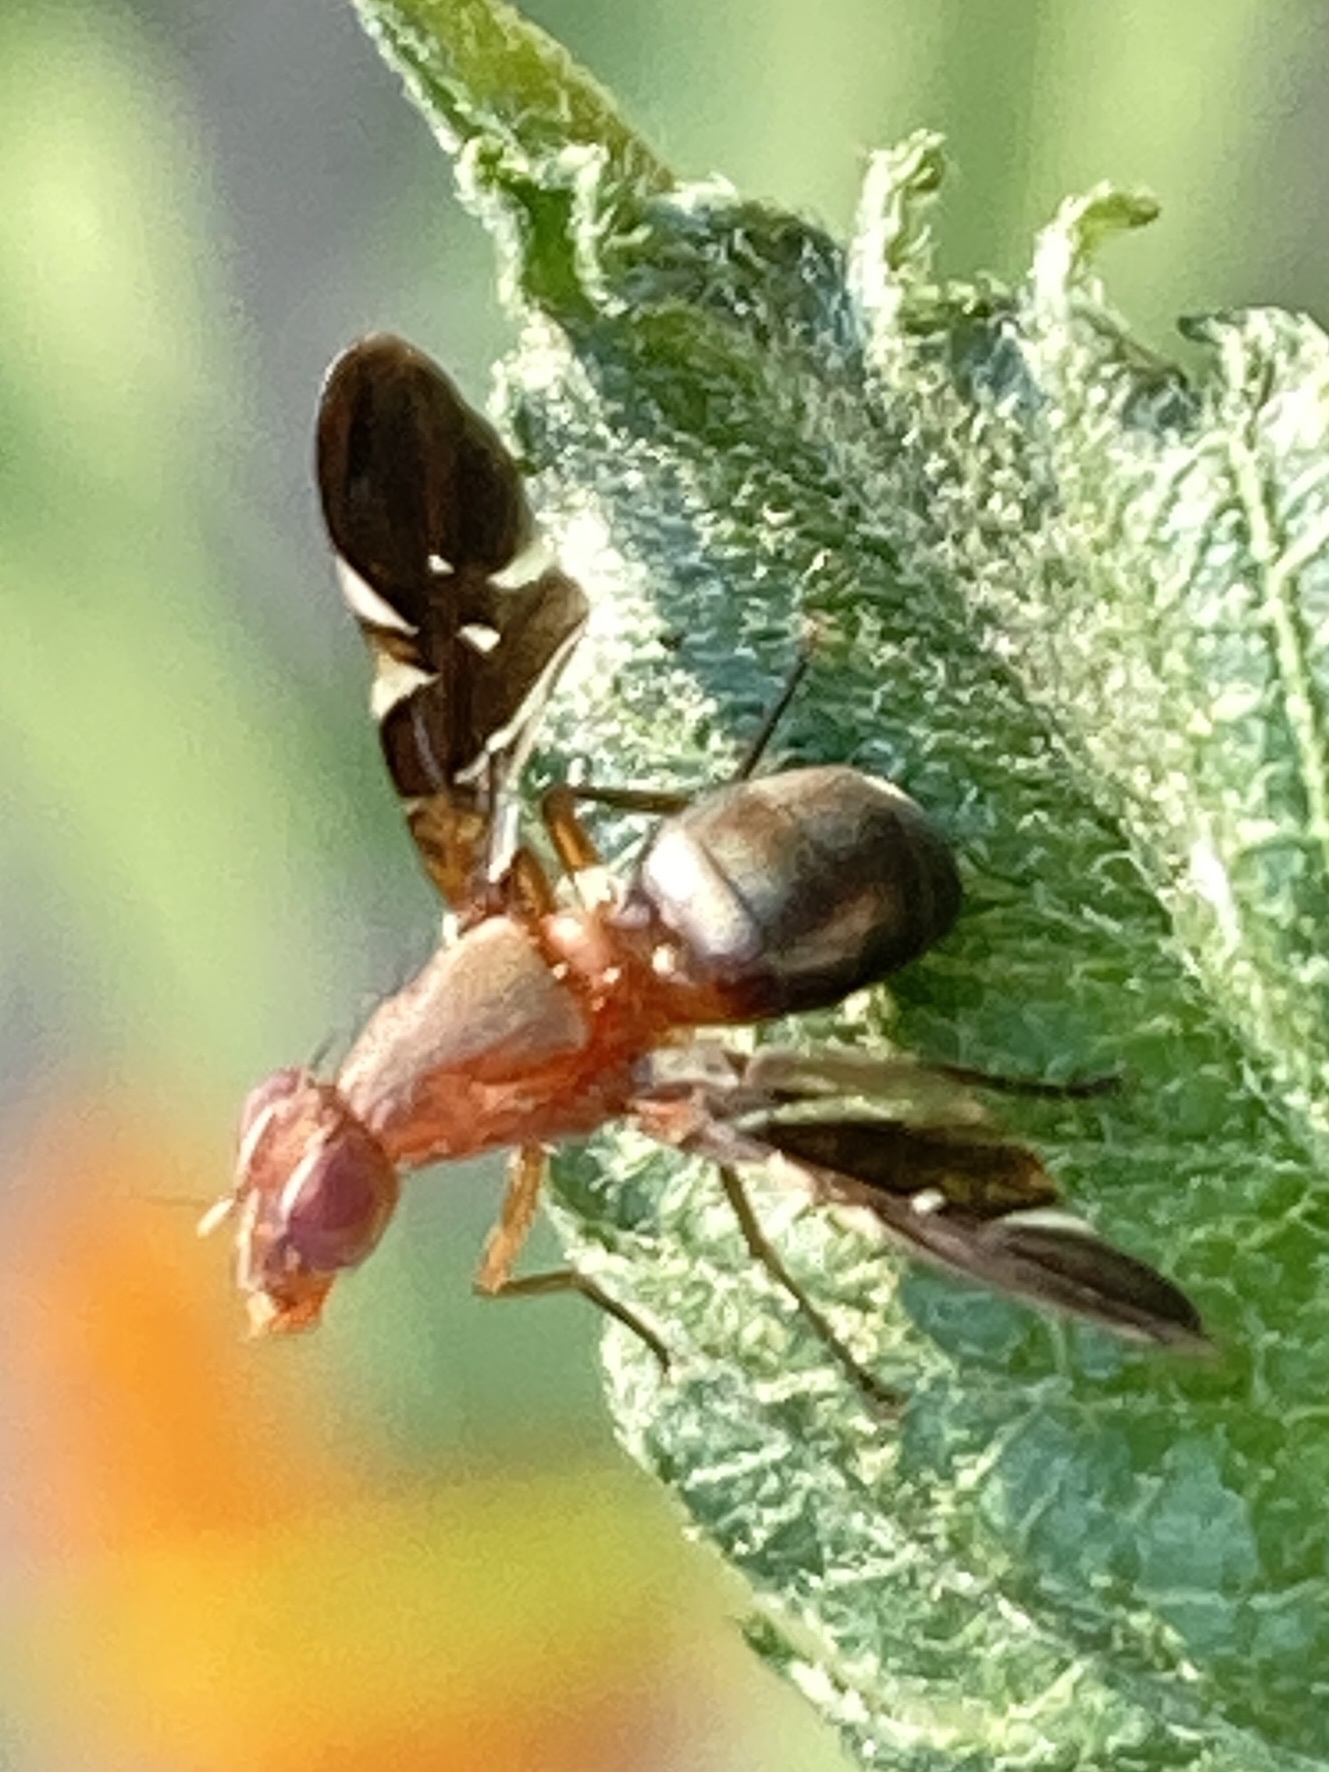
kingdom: Animalia
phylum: Arthropoda
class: Insecta
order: Diptera
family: Ulidiidae
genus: Delphinia
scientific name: Delphinia picta
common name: Common picture-winged fly
